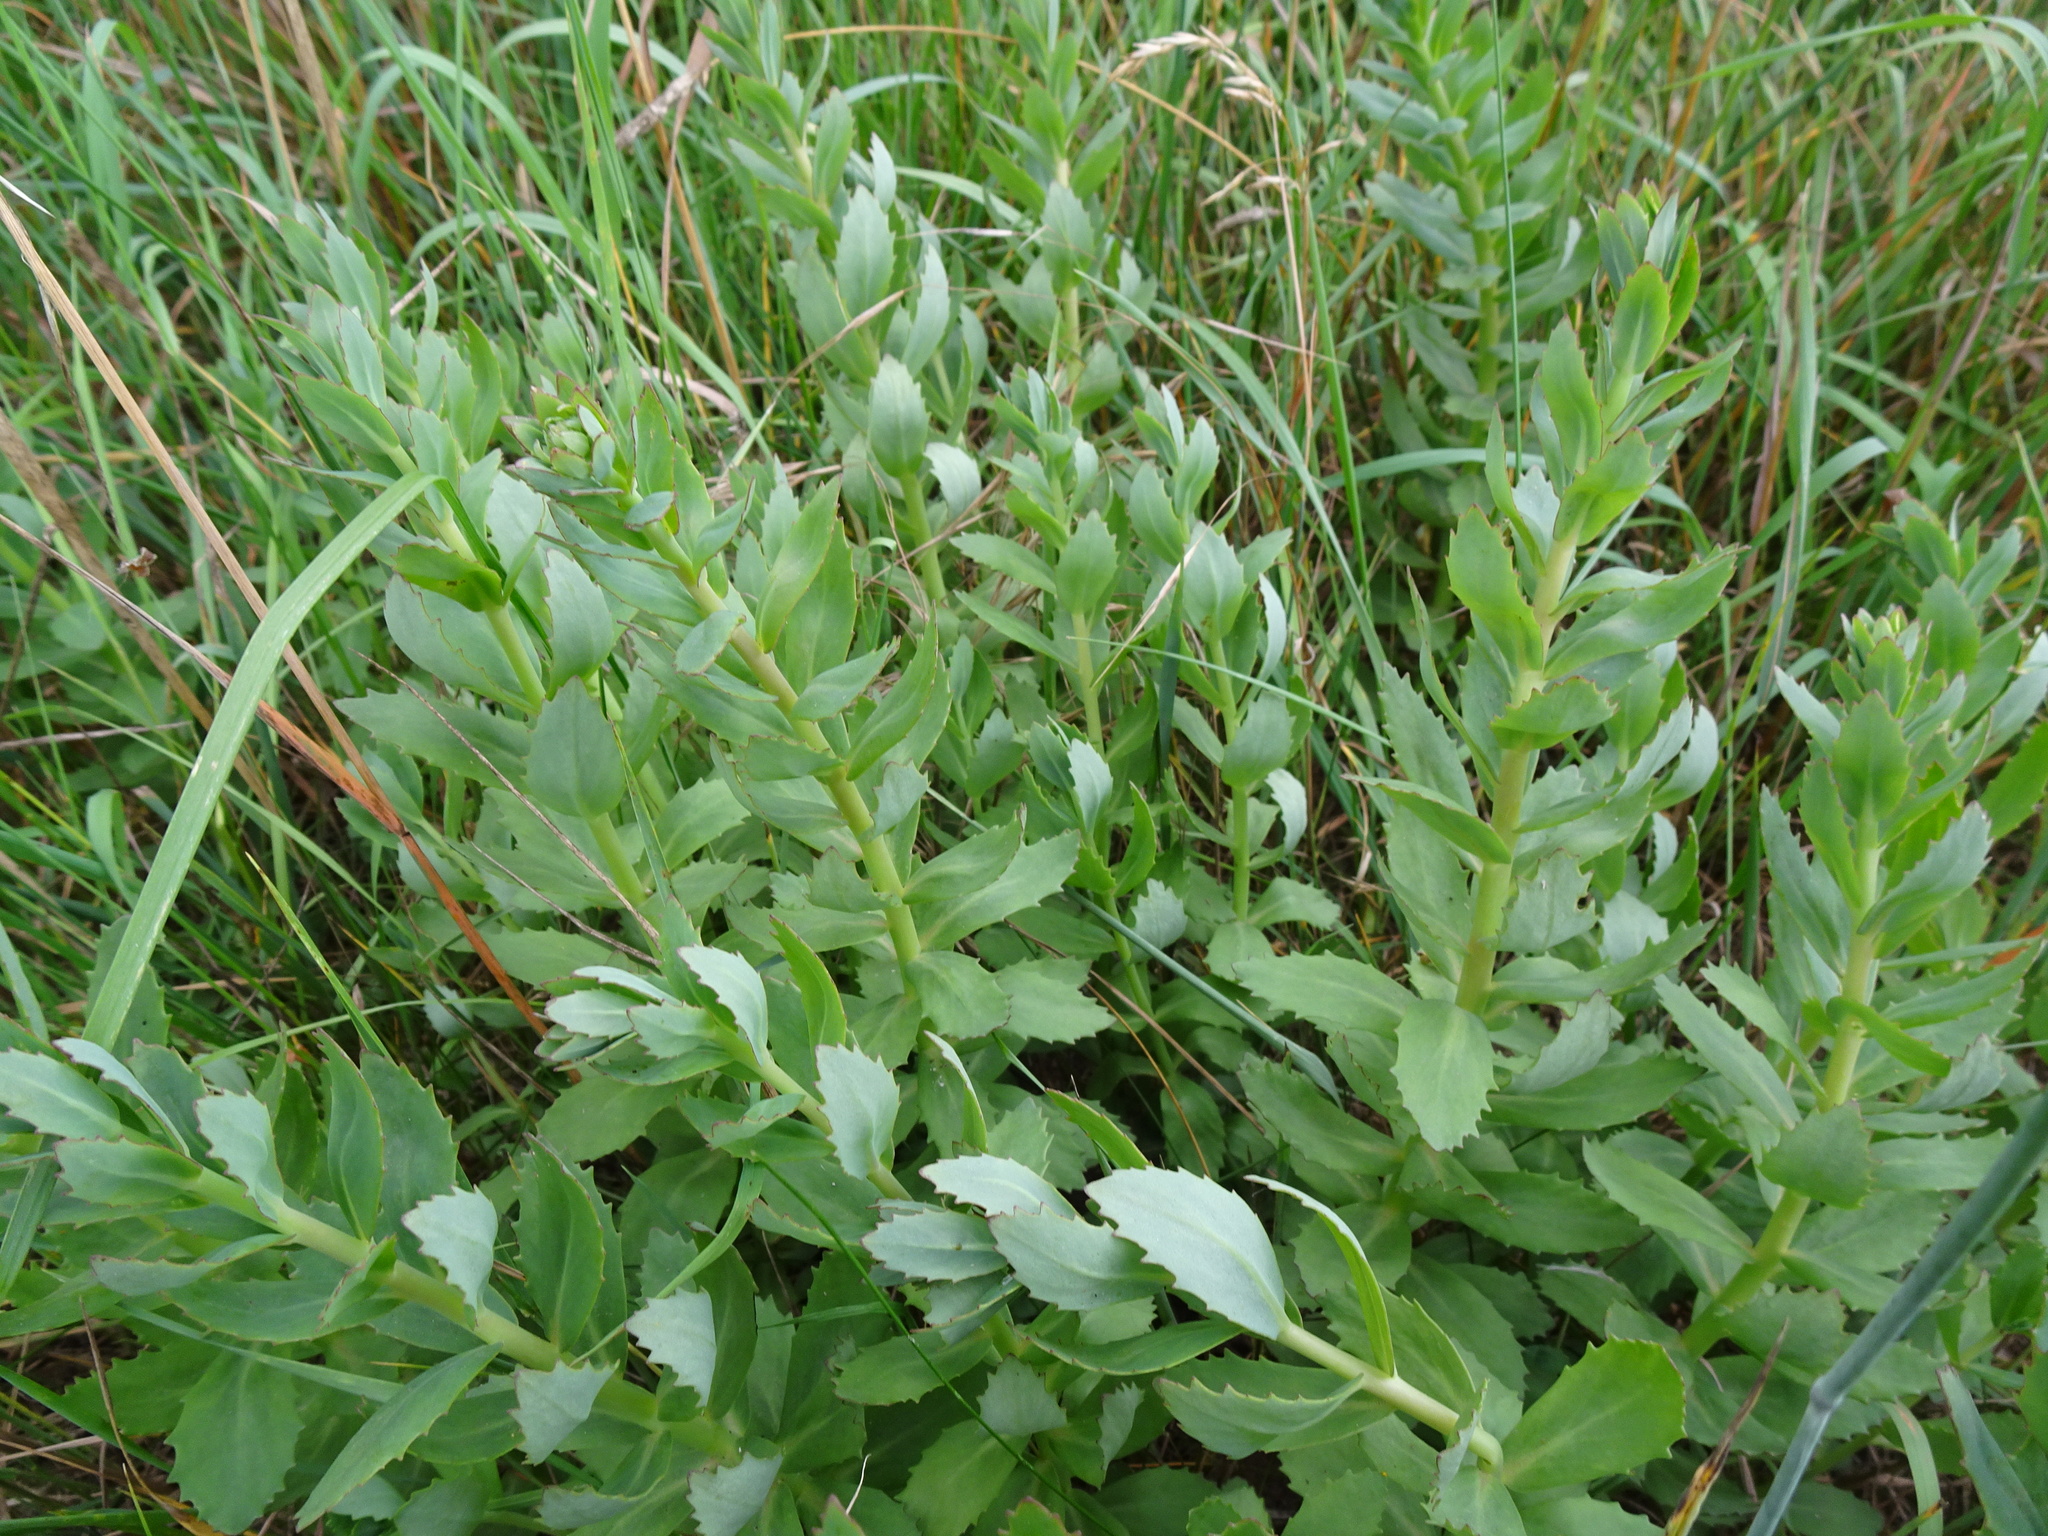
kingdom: Plantae
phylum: Tracheophyta
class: Magnoliopsida
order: Saxifragales
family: Crassulaceae
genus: Hylotelephium
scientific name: Hylotelephium telephium
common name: Live-forever
